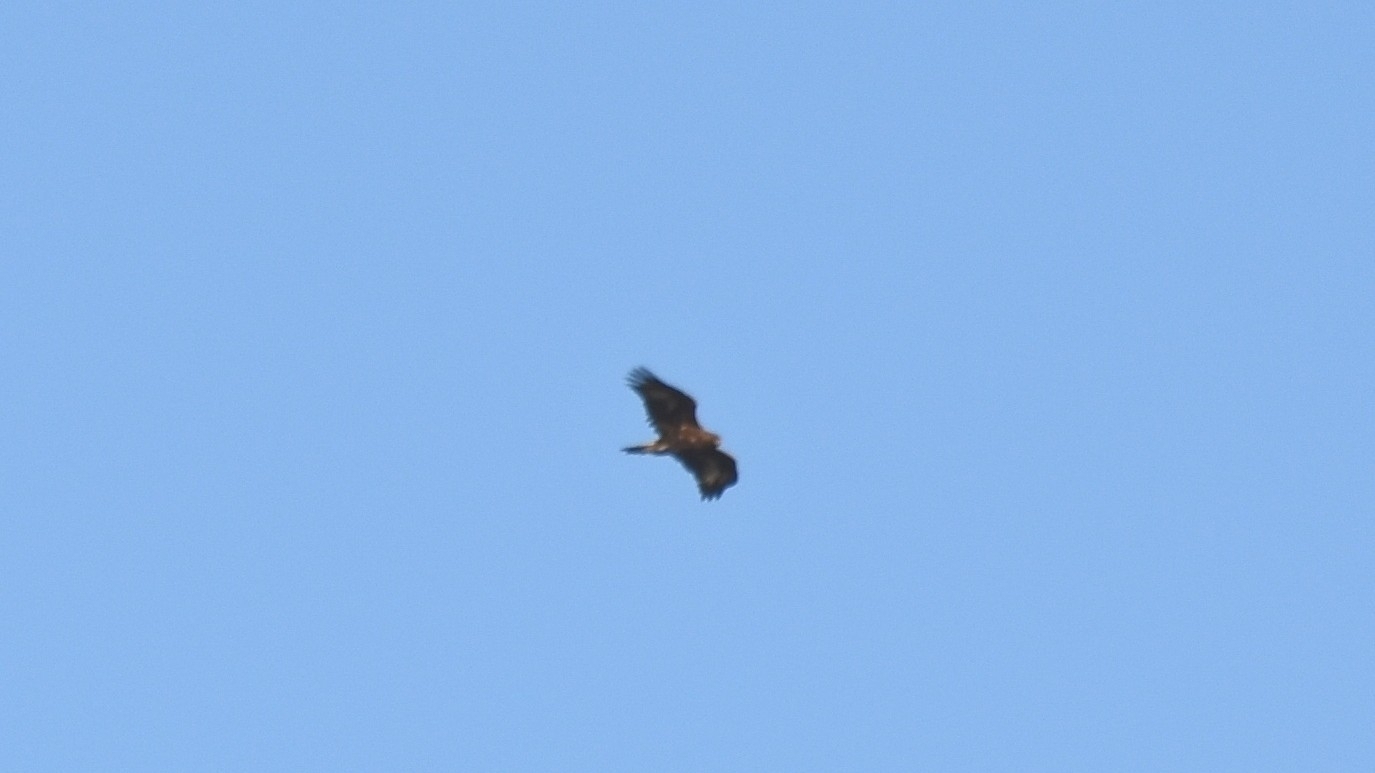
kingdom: Animalia
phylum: Chordata
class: Aves
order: Accipitriformes
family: Accipitridae
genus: Haliaeetus
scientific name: Haliaeetus albicilla
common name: White-tailed eagle
